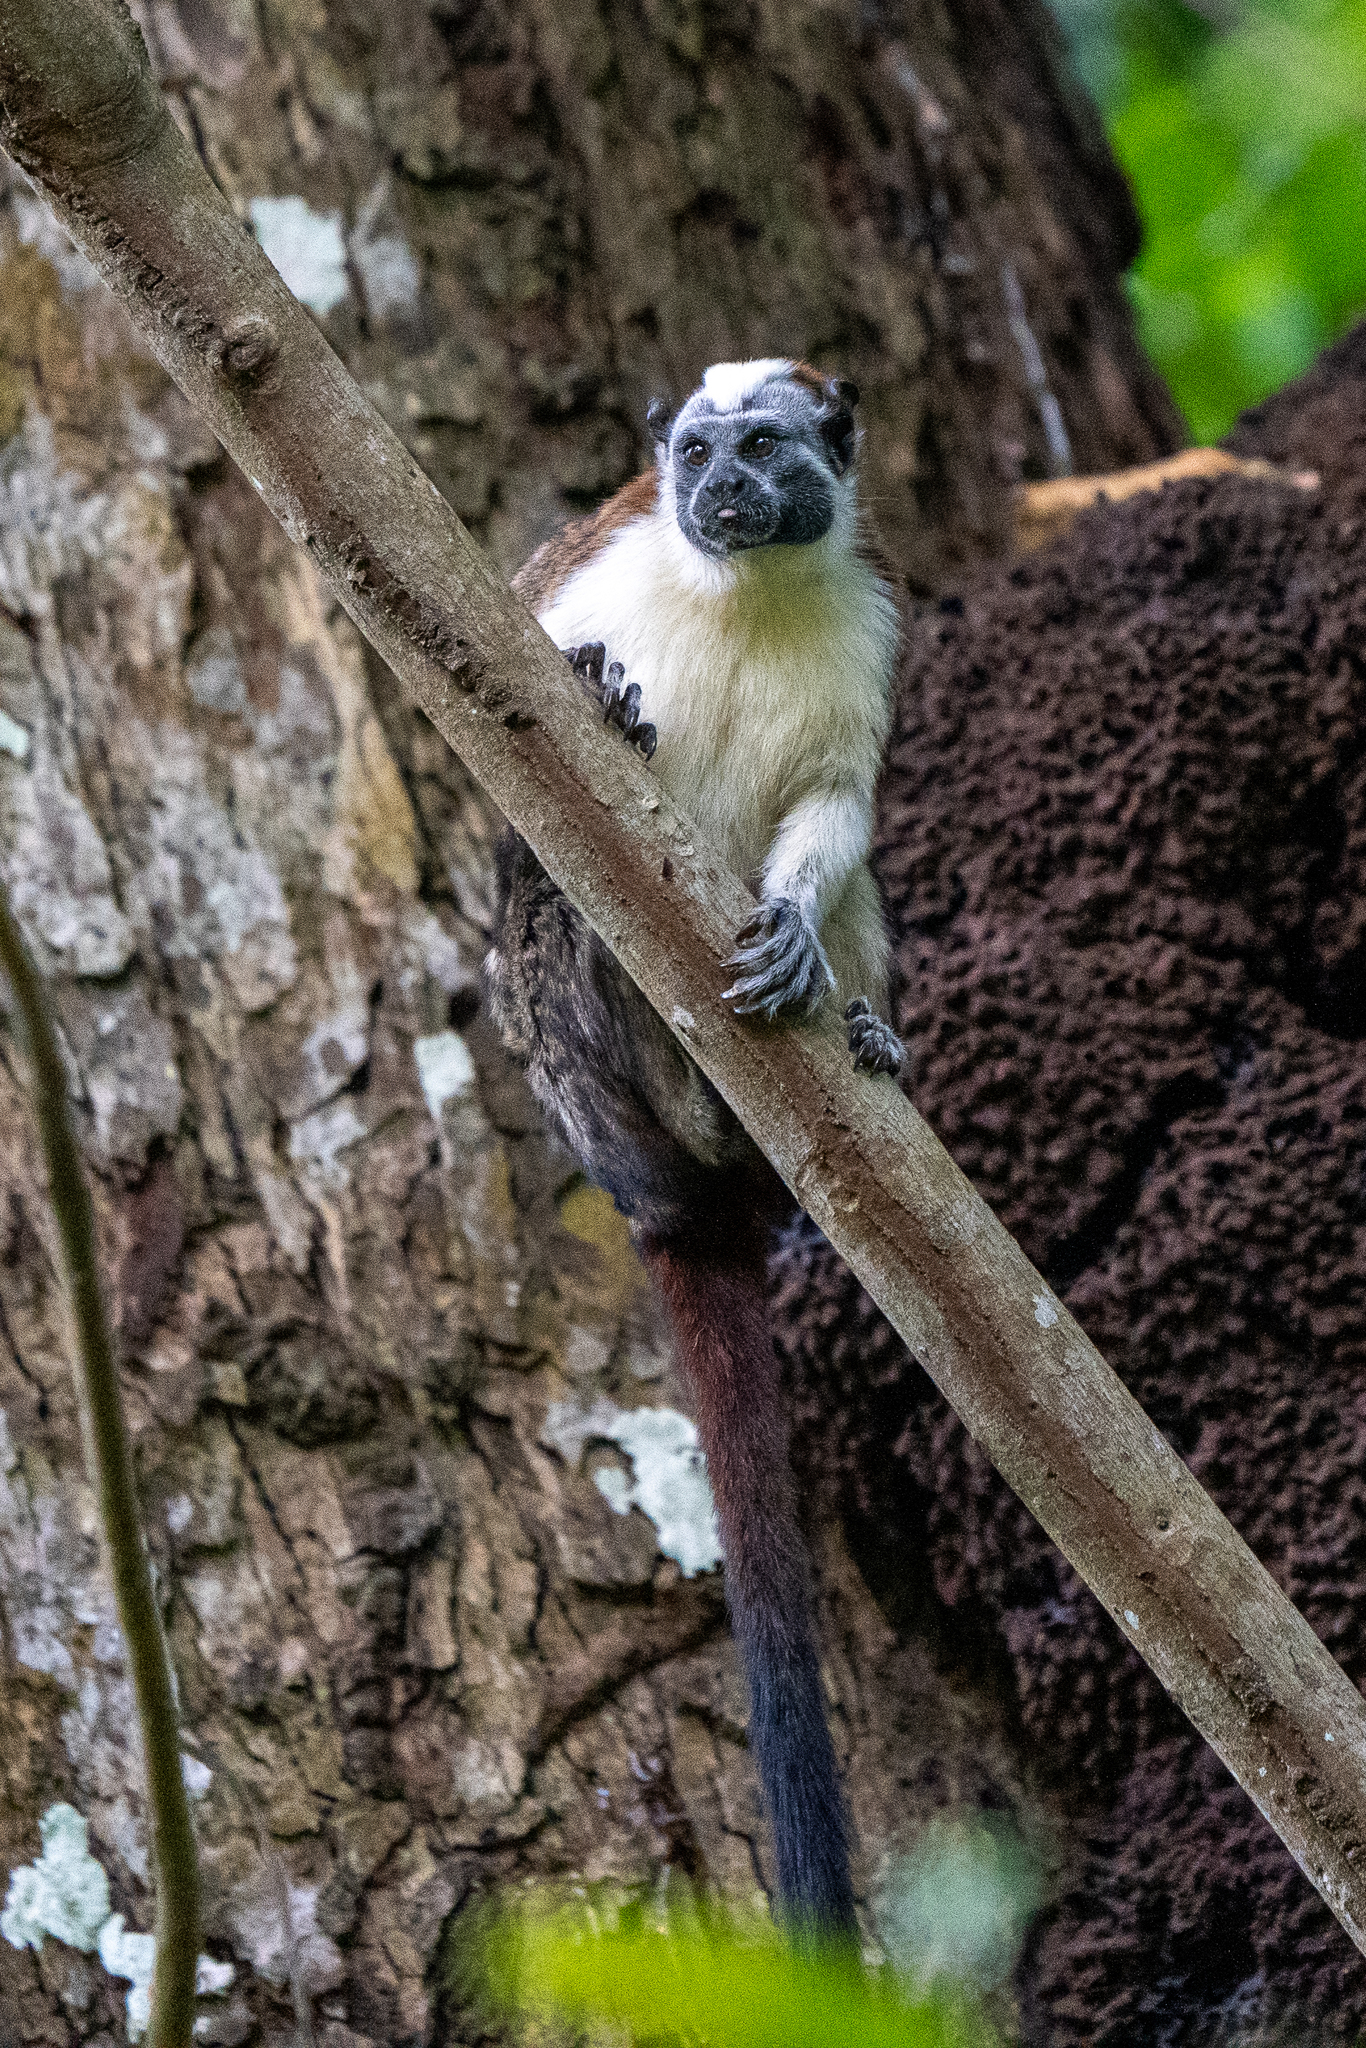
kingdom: Animalia
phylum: Chordata
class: Mammalia
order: Primates
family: Callitrichidae
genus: Saguinus
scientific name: Saguinus geoffroyi
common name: Geoffroy s tamarin
